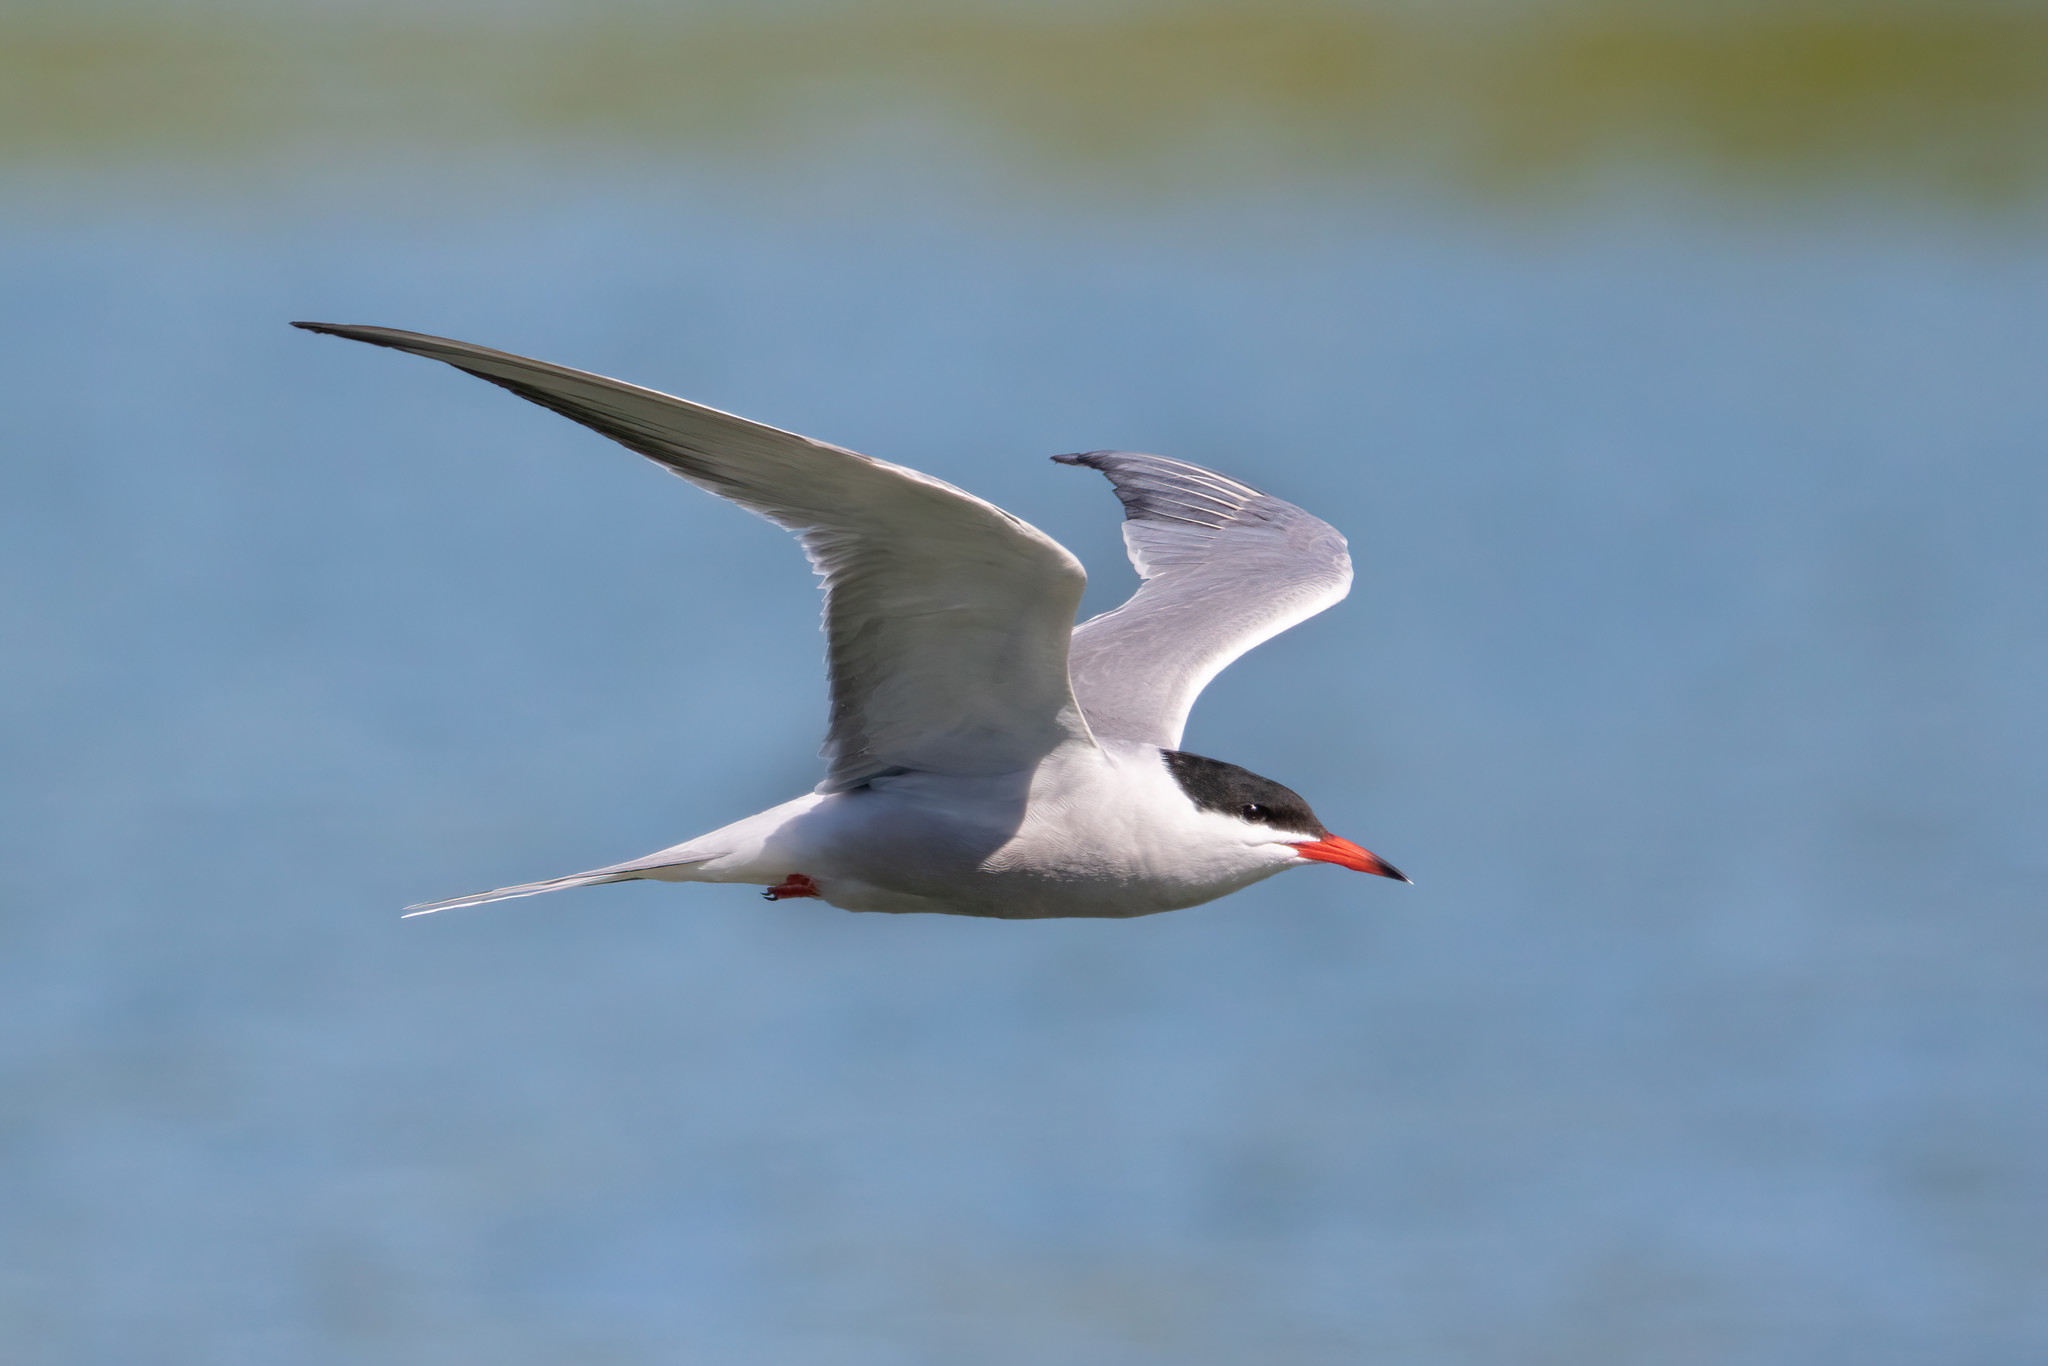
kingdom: Animalia
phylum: Chordata
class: Aves
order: Charadriiformes
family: Laridae
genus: Sterna
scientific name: Sterna hirundo
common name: Common tern
